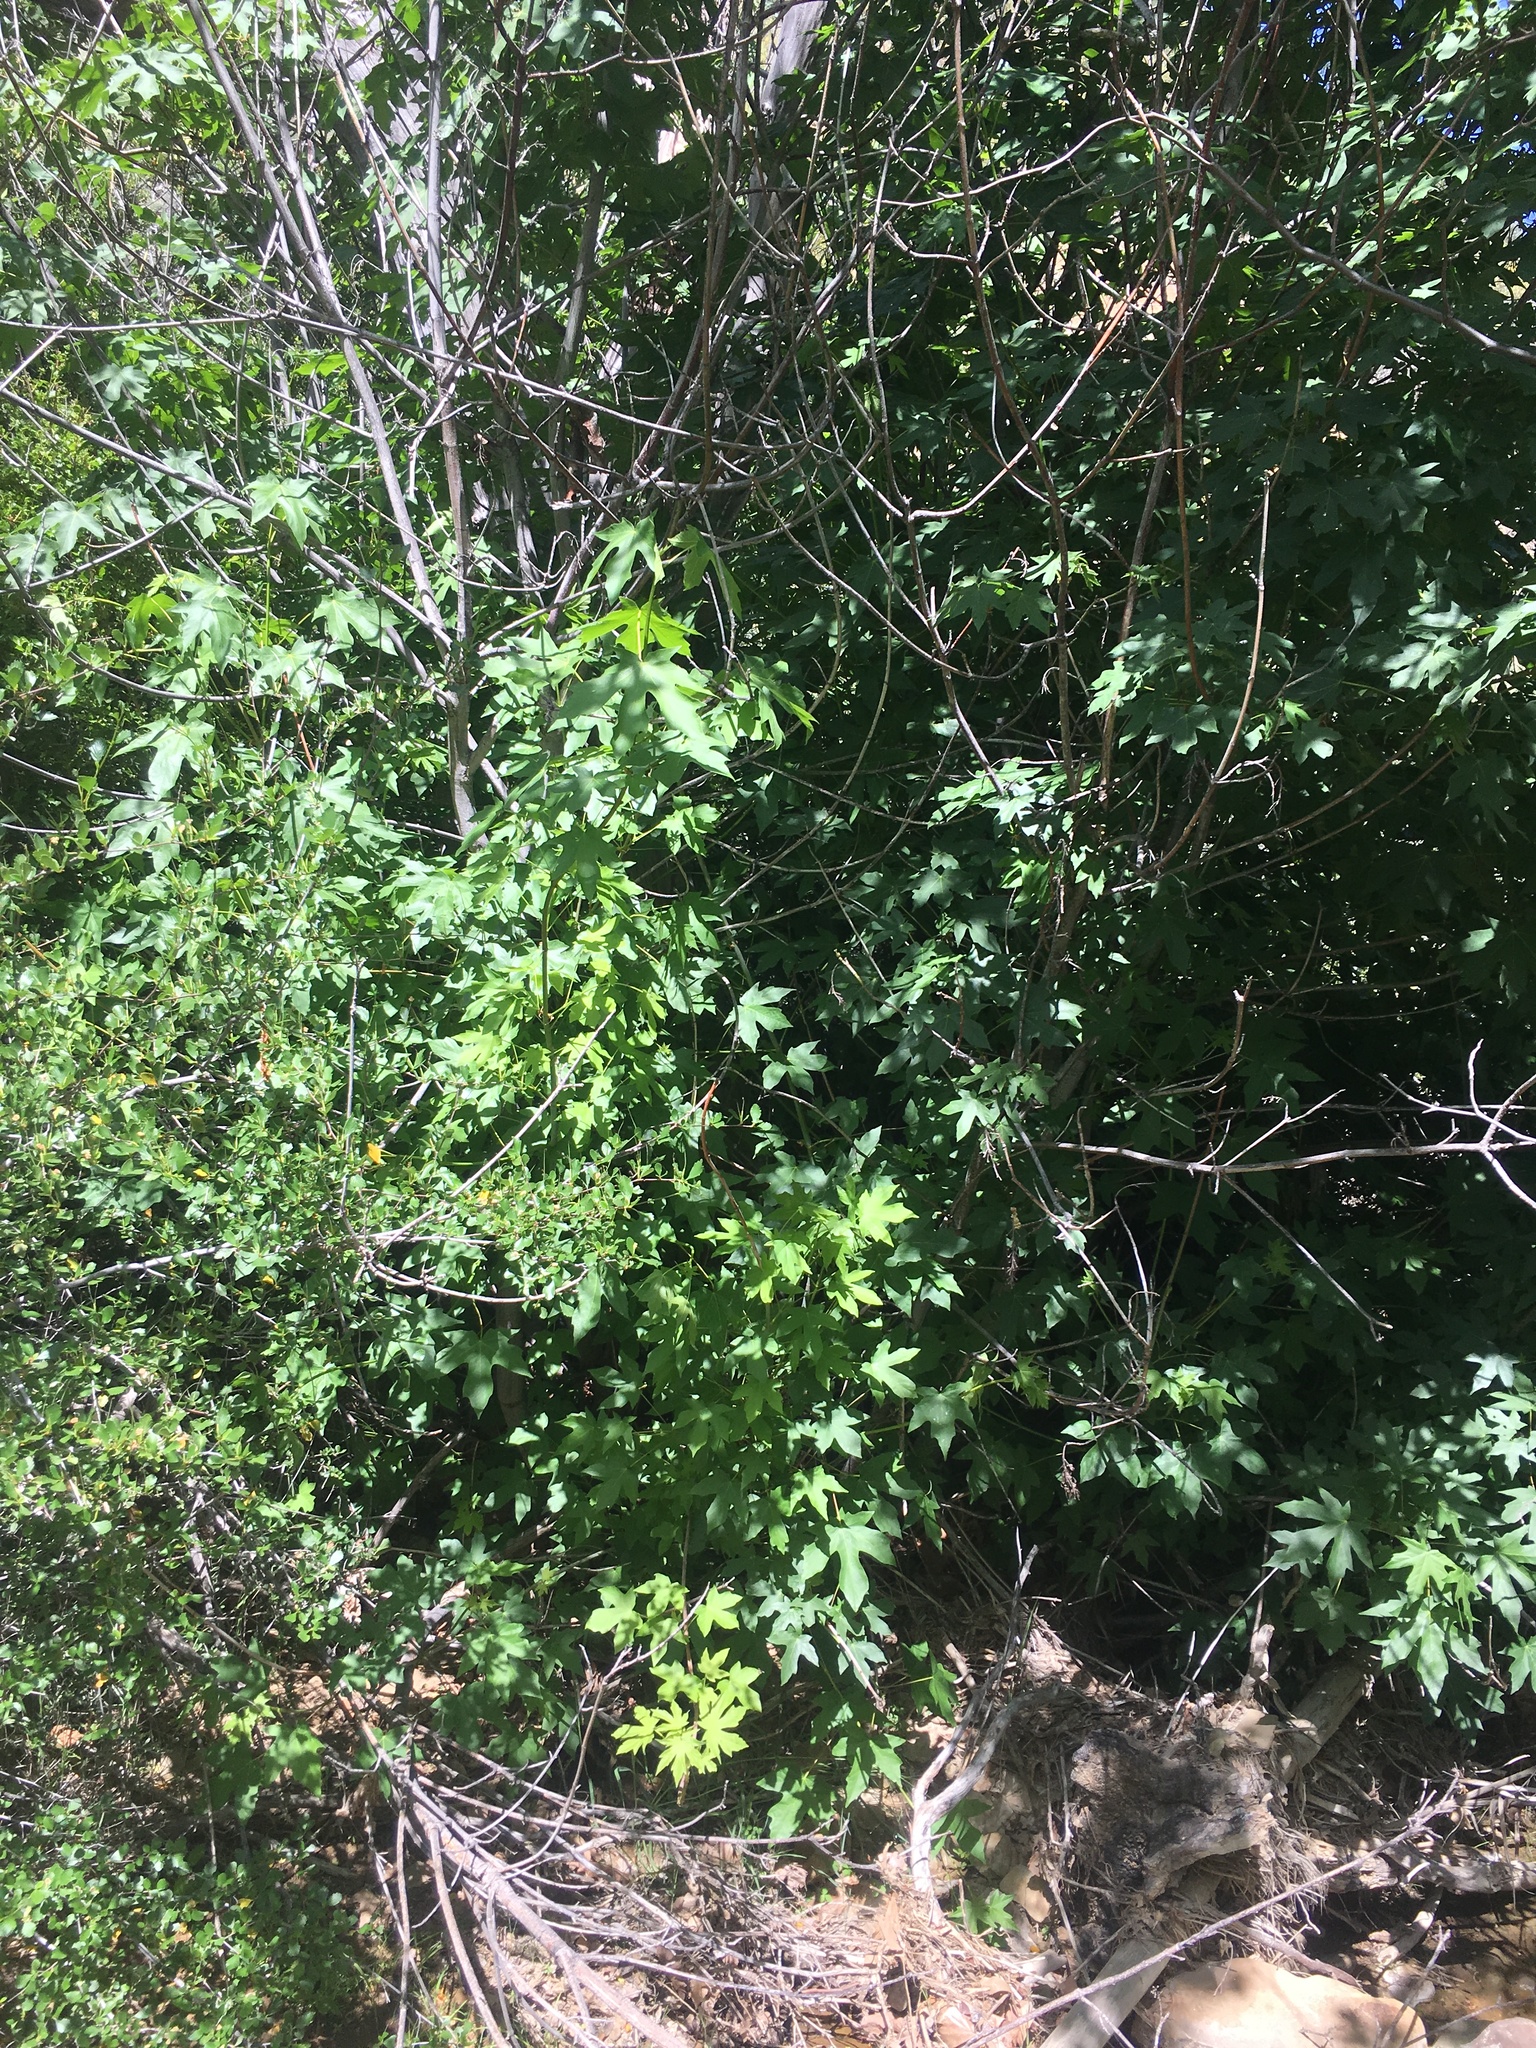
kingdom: Plantae
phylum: Tracheophyta
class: Magnoliopsida
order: Sapindales
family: Sapindaceae
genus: Acer
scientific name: Acer macrophyllum
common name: Oregon maple
